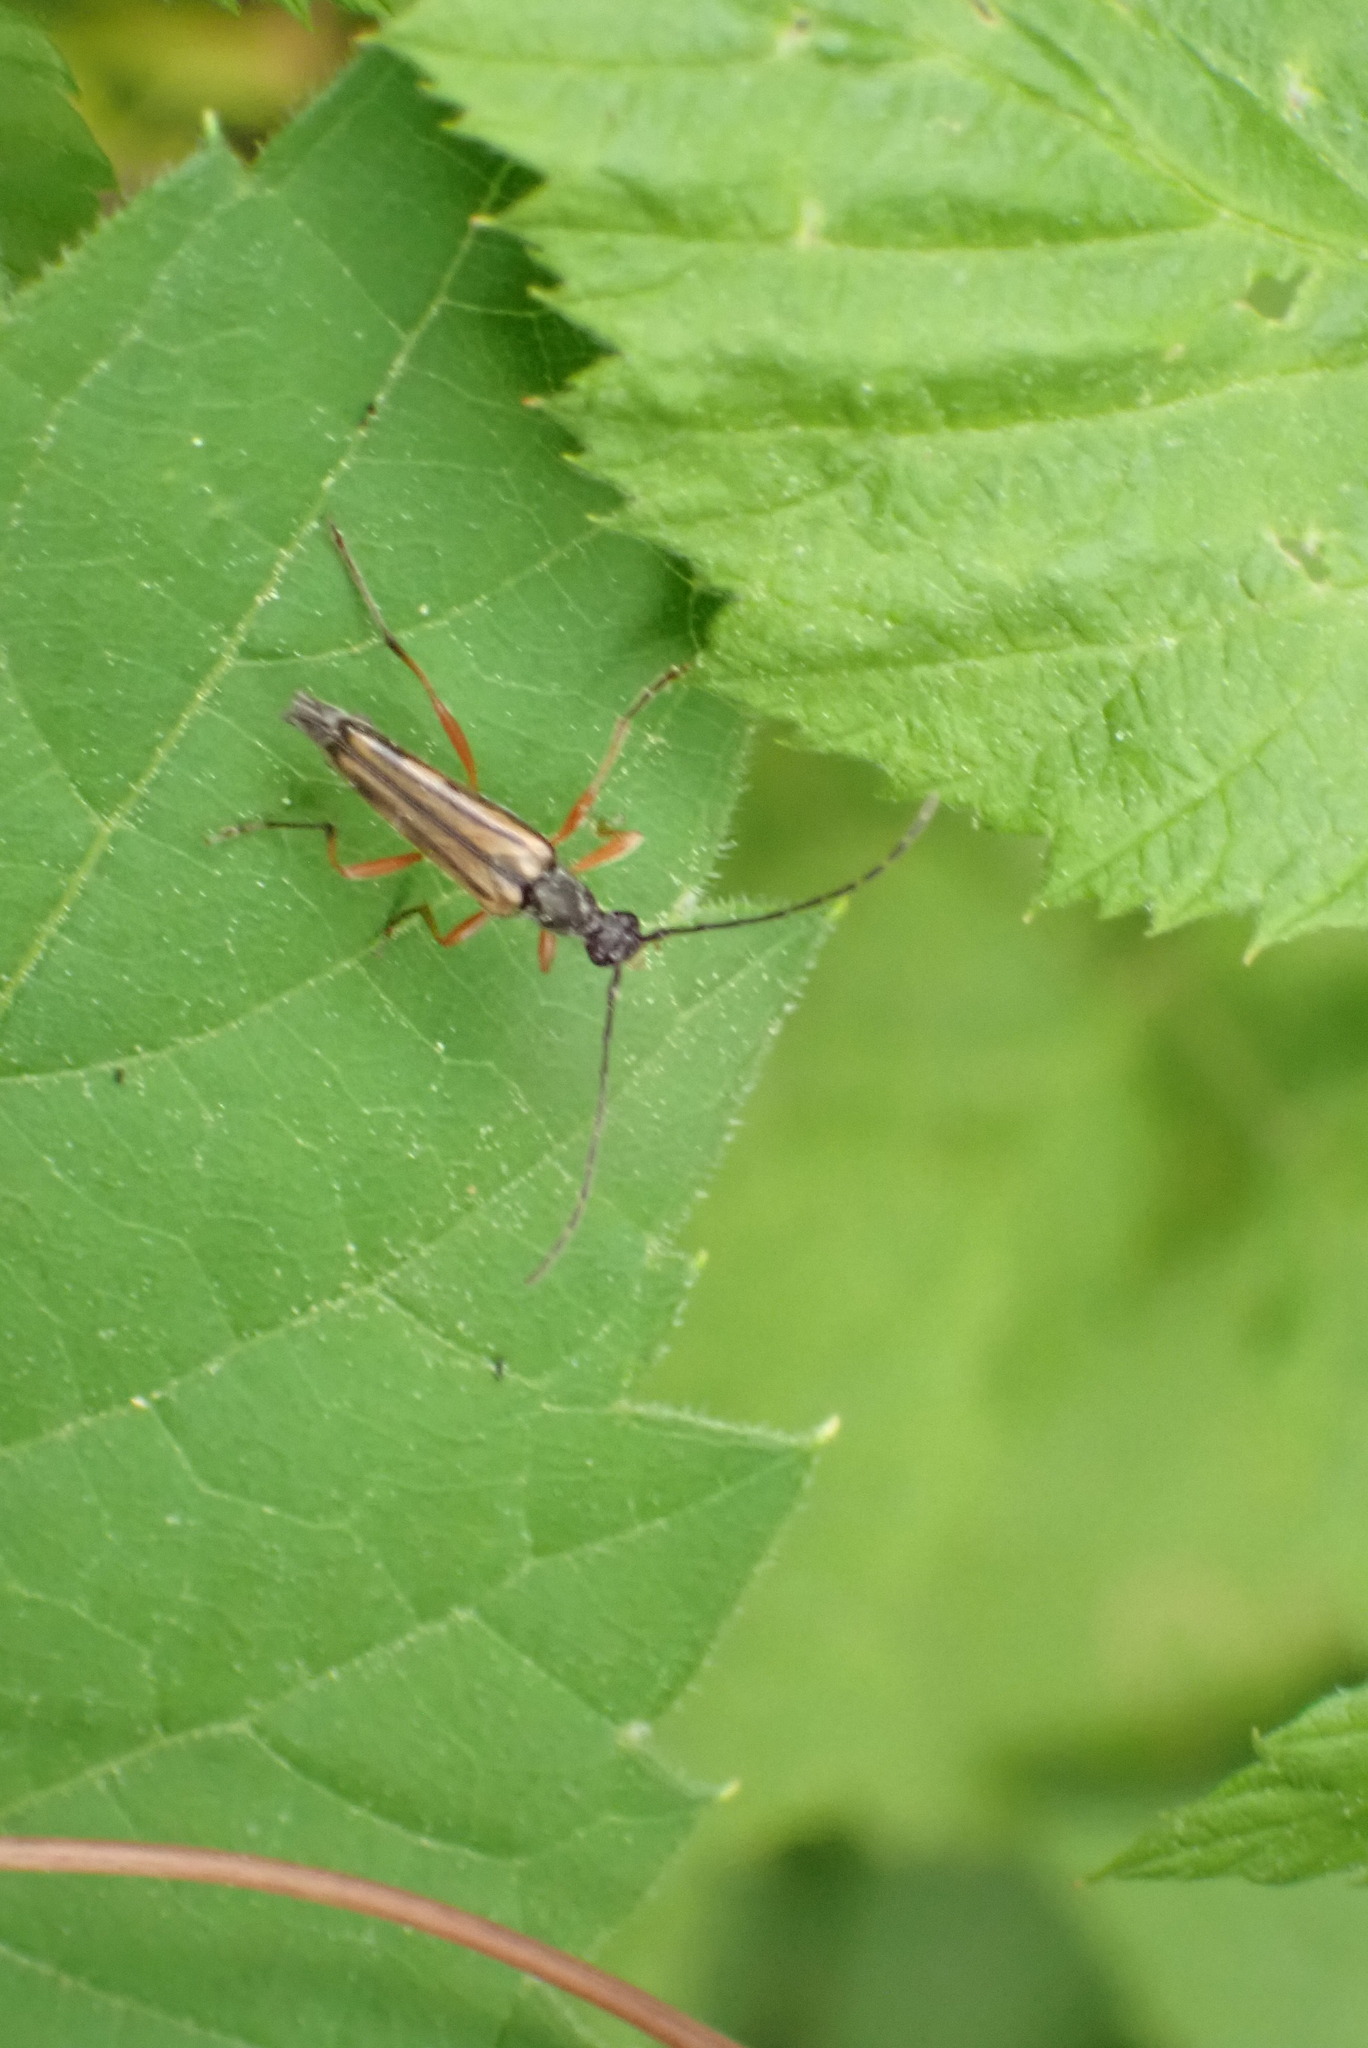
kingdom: Animalia
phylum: Arthropoda
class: Insecta
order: Coleoptera
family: Cerambycidae
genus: Analeptura
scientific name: Analeptura lineola
